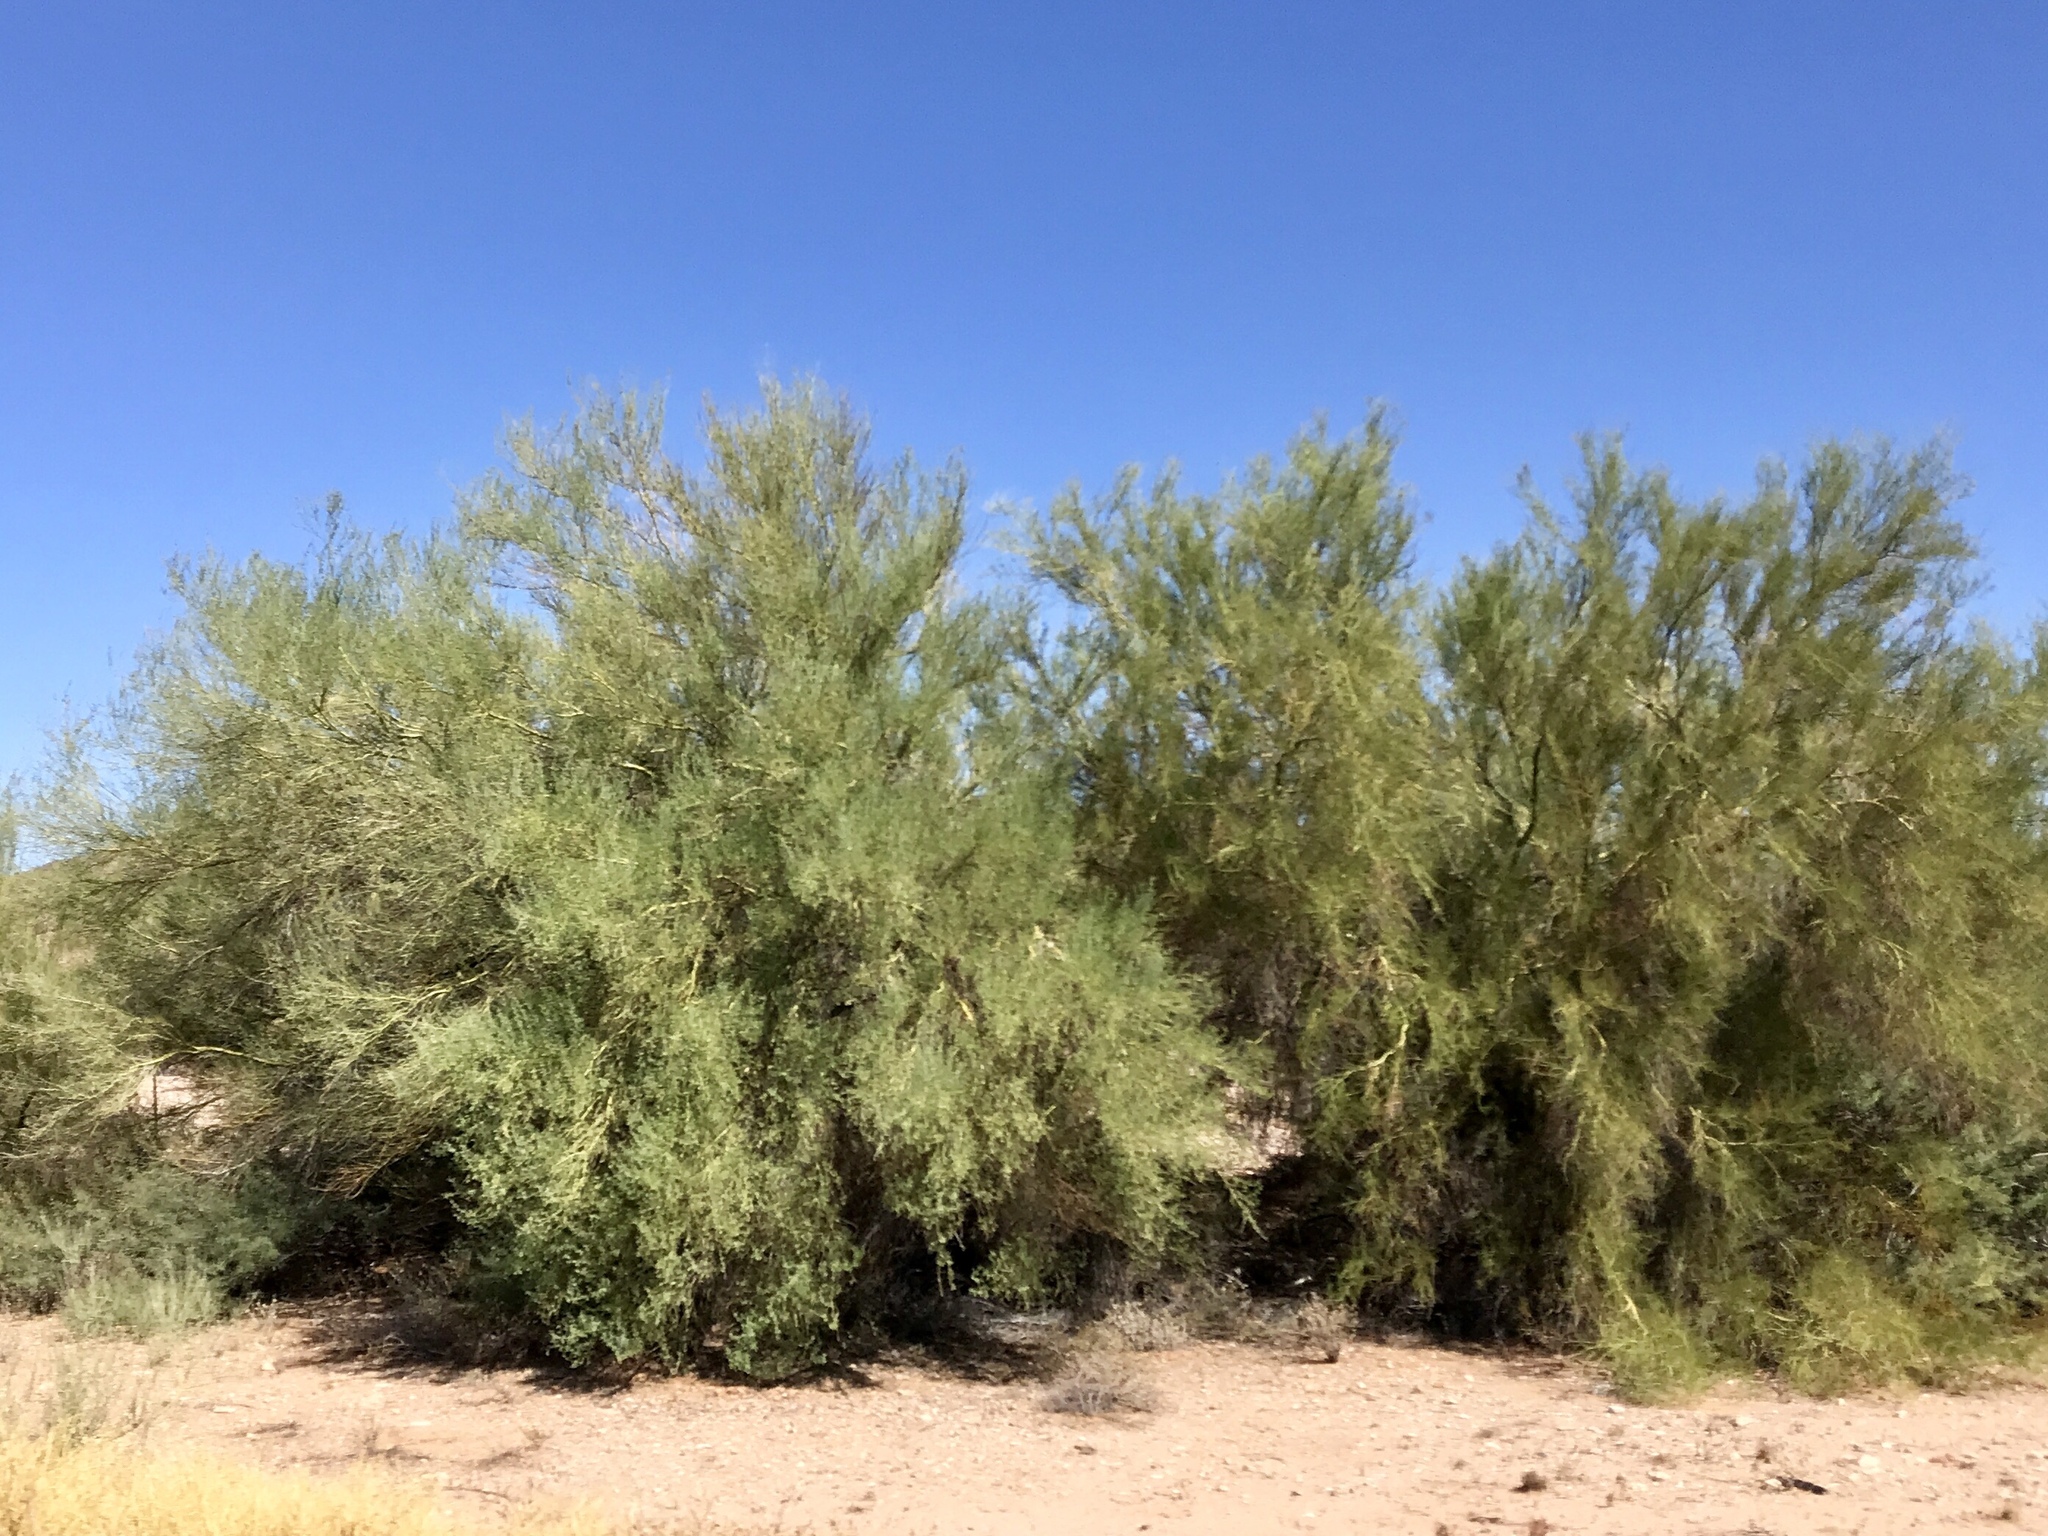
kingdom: Plantae
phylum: Tracheophyta
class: Magnoliopsida
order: Fabales
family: Fabaceae
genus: Parkinsonia
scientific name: Parkinsonia florida
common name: Blue paloverde
